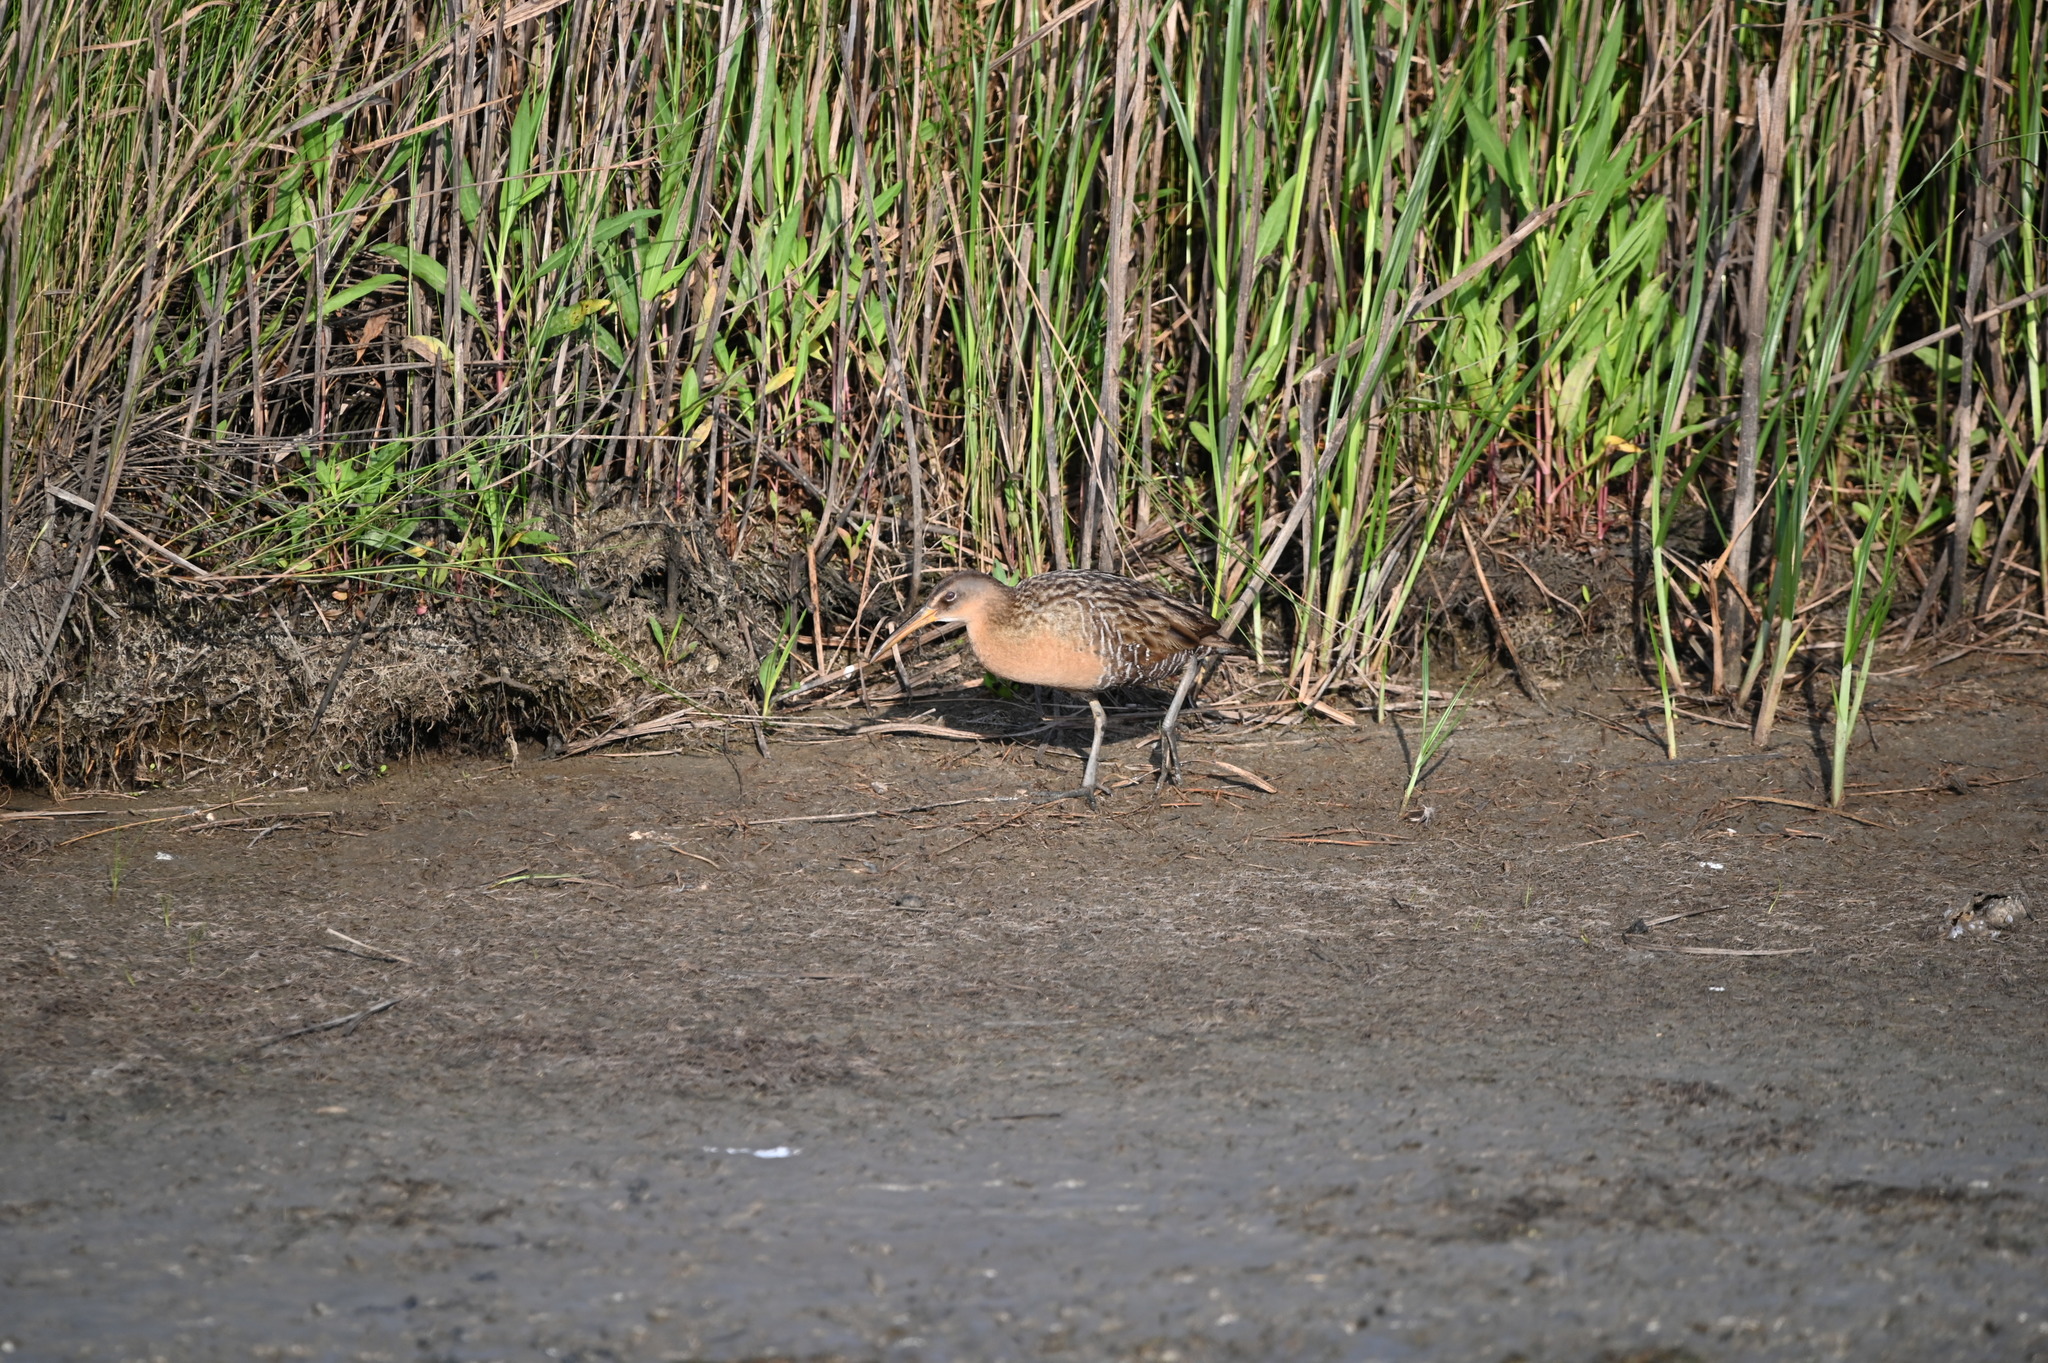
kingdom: Animalia
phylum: Chordata
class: Aves
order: Gruiformes
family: Rallidae
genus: Rallus
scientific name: Rallus crepitans
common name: Clapper rail
